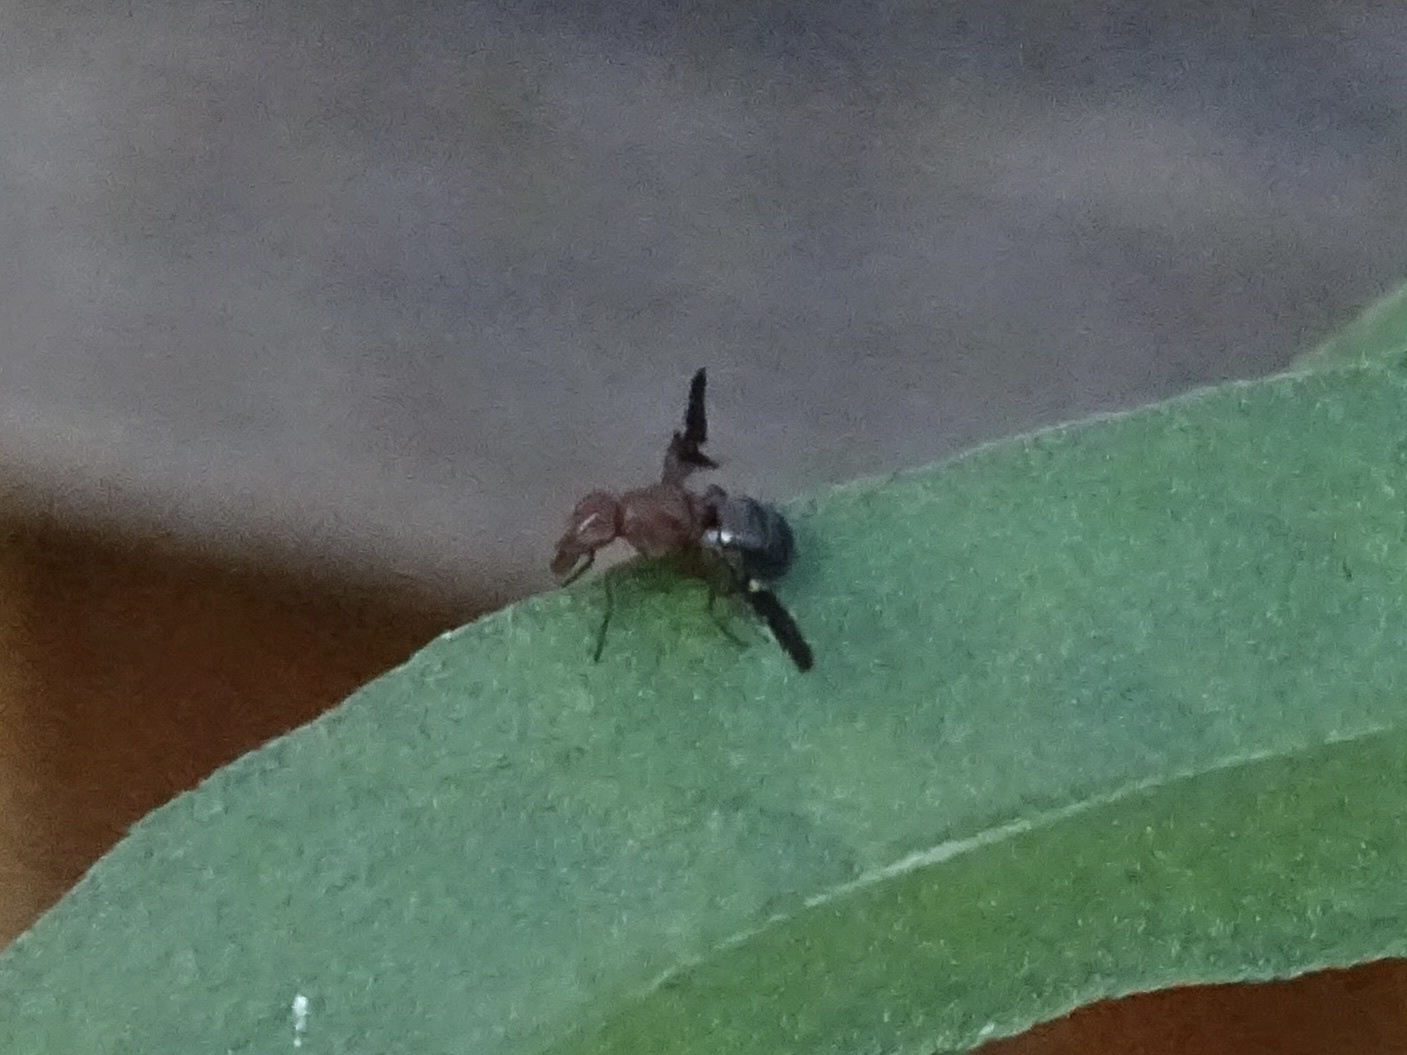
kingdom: Animalia
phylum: Arthropoda
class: Insecta
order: Diptera
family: Ulidiidae
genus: Delphinia
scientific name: Delphinia picta
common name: Common picture-winged fly
